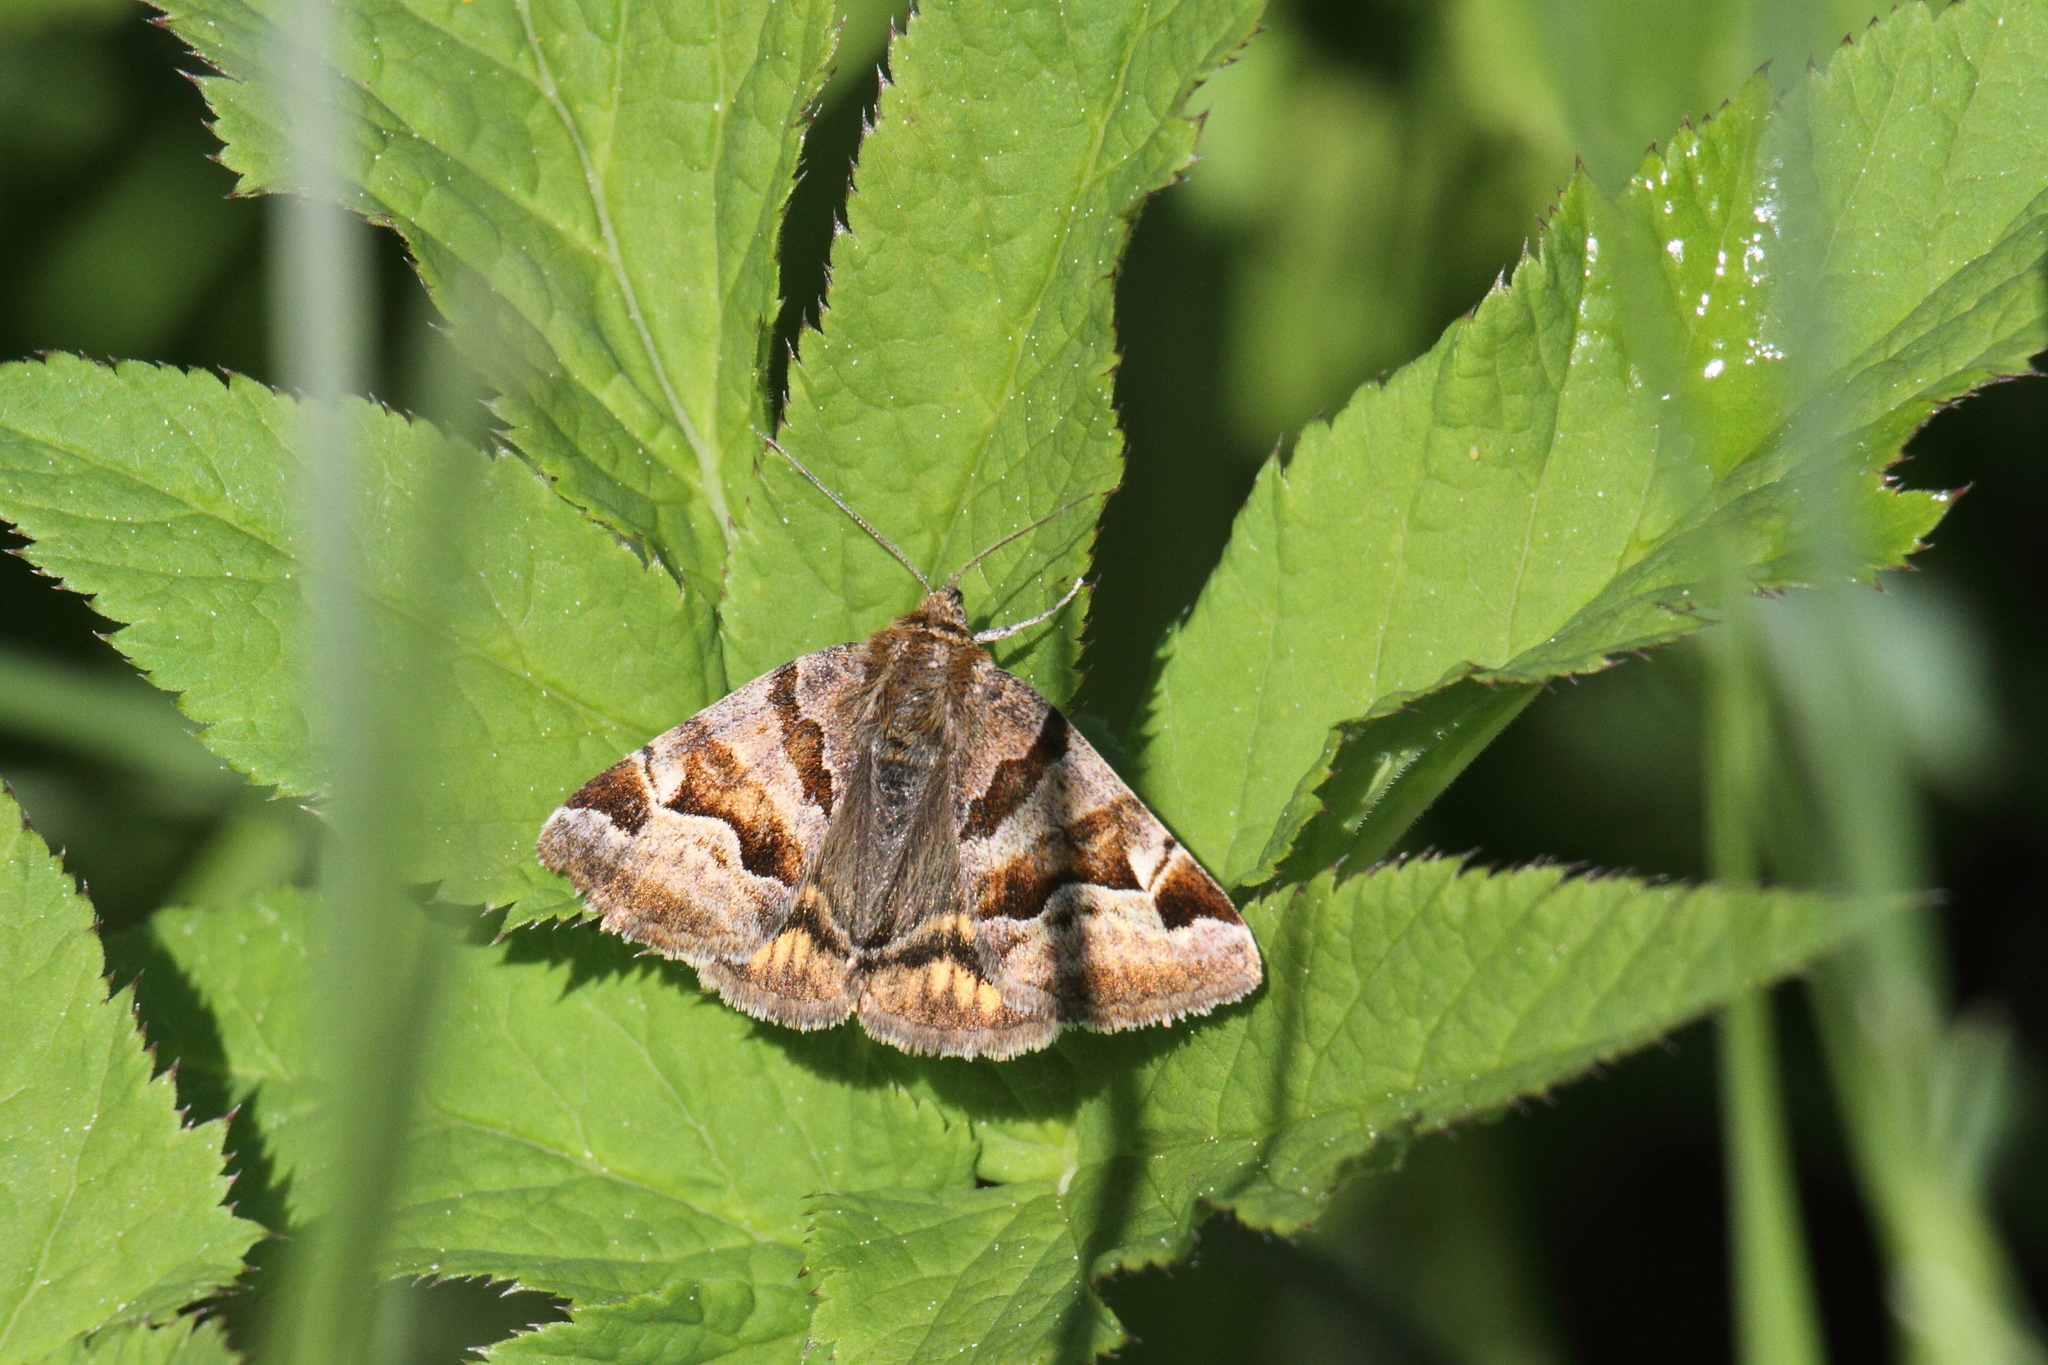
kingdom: Animalia
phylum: Arthropoda
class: Insecta
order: Lepidoptera
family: Erebidae
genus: Euclidia
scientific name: Euclidia glyphica
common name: Burnet companion
